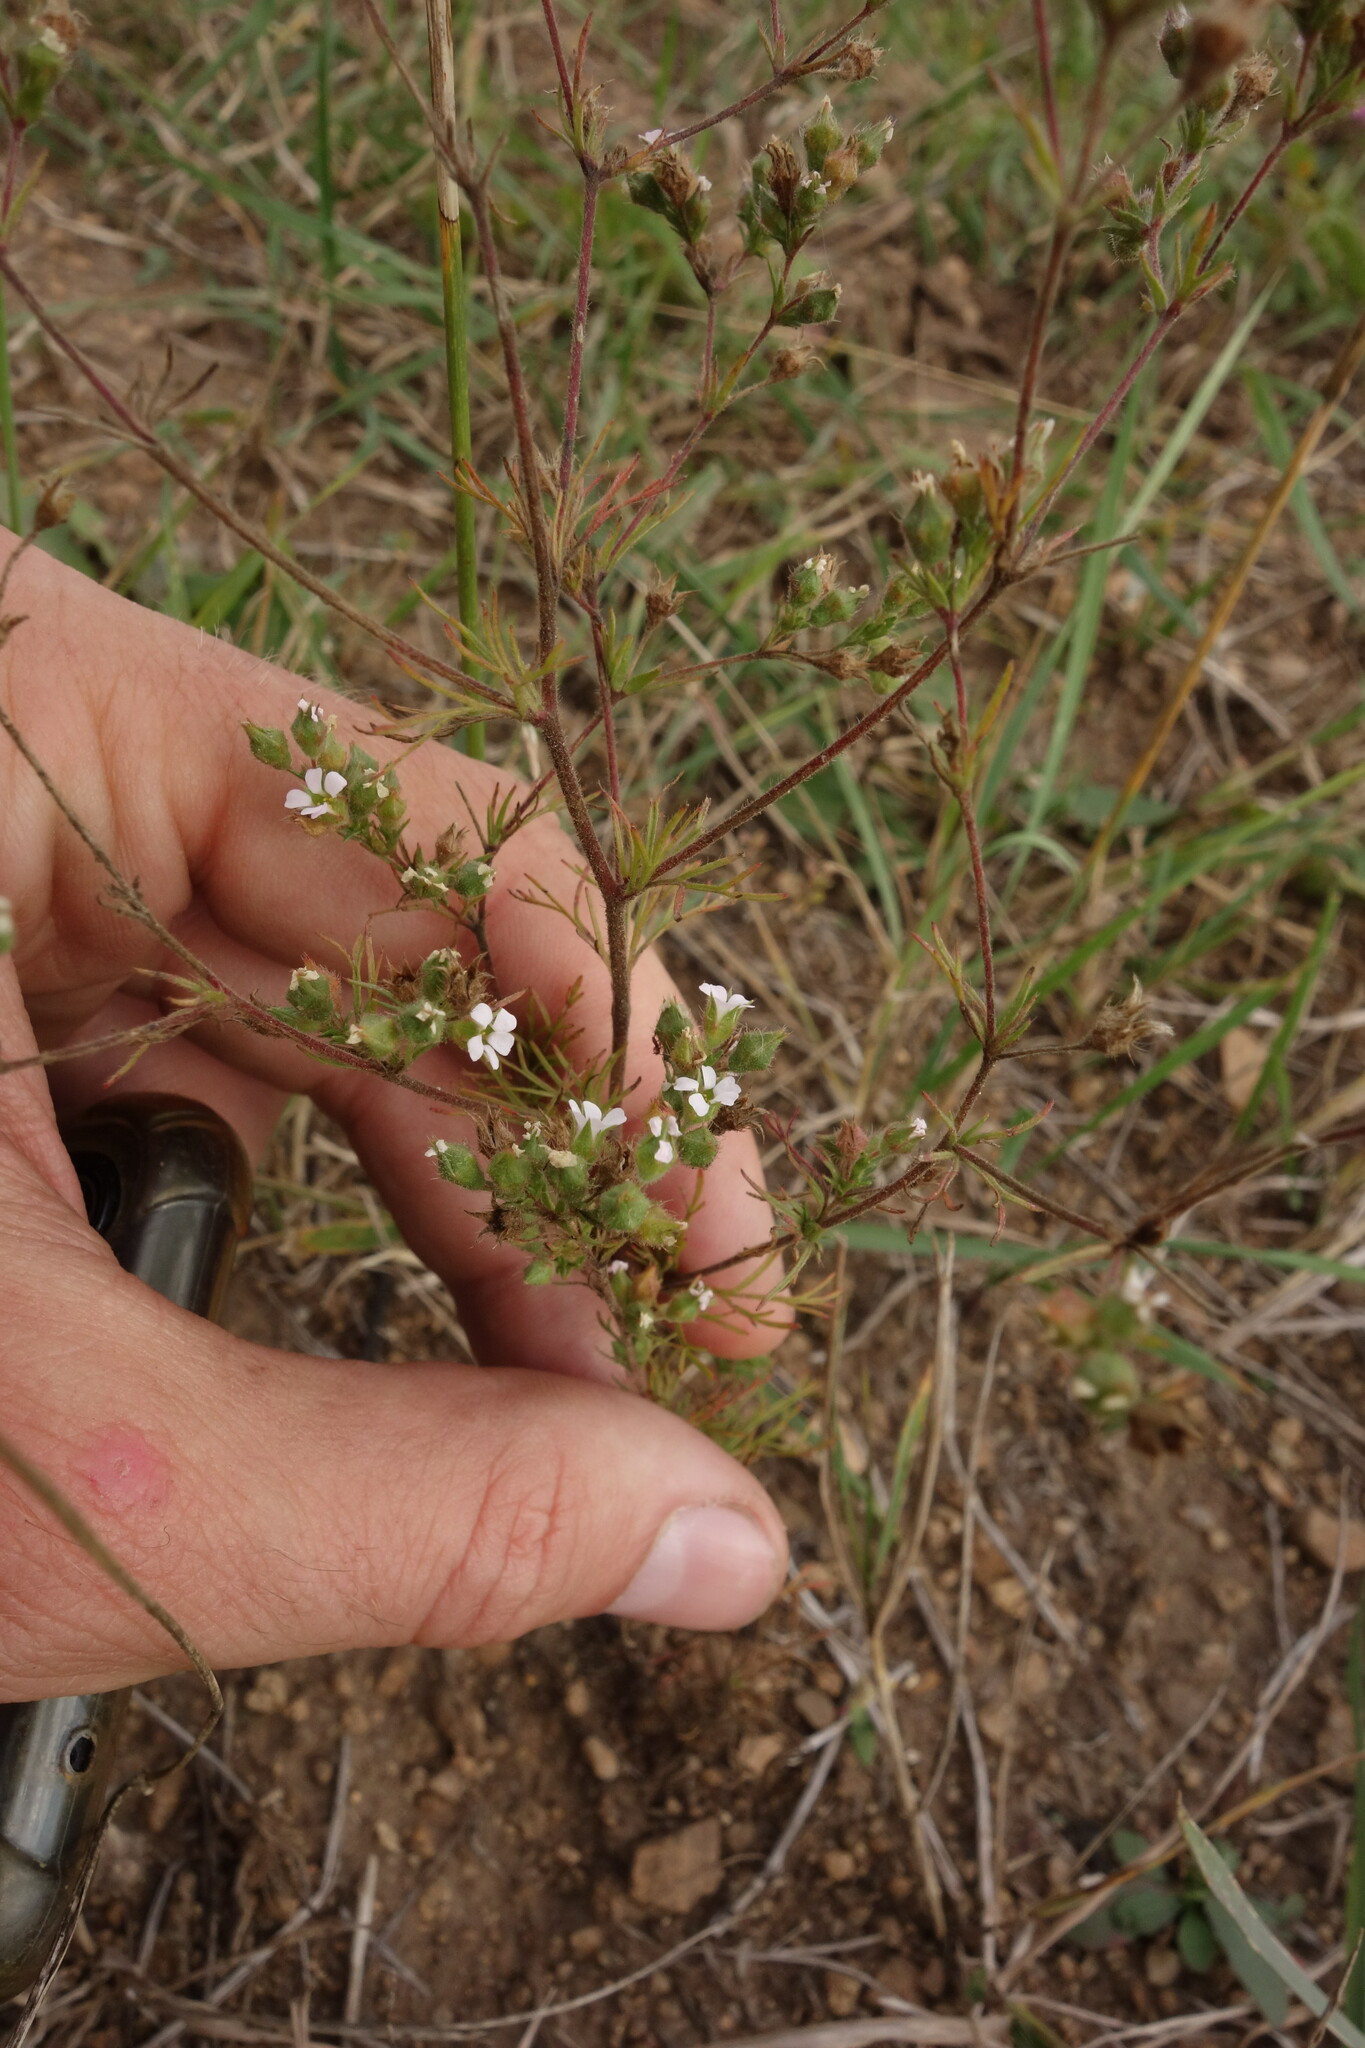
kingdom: Plantae
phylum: Tracheophyta
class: Magnoliopsida
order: Rosales
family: Rosaceae
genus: Chamaerhodos
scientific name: Chamaerhodos erecta
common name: American chamaerhodos
